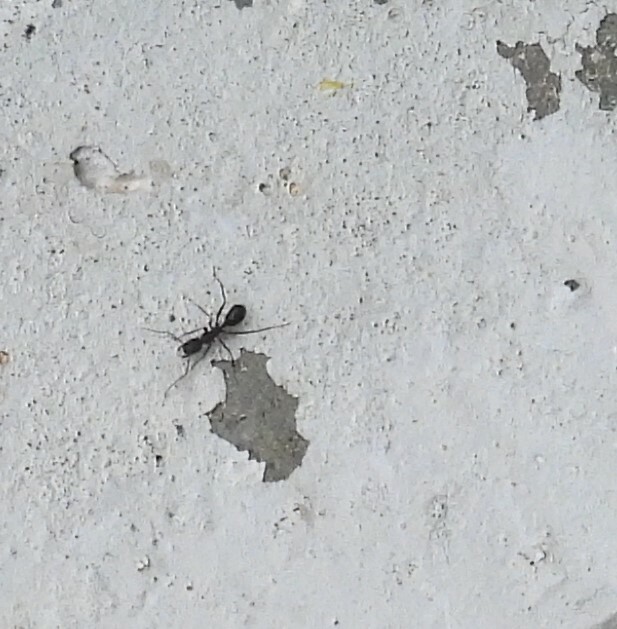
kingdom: Animalia
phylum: Arthropoda
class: Insecta
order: Hymenoptera
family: Formicidae
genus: Camponotus
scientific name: Camponotus compressus
